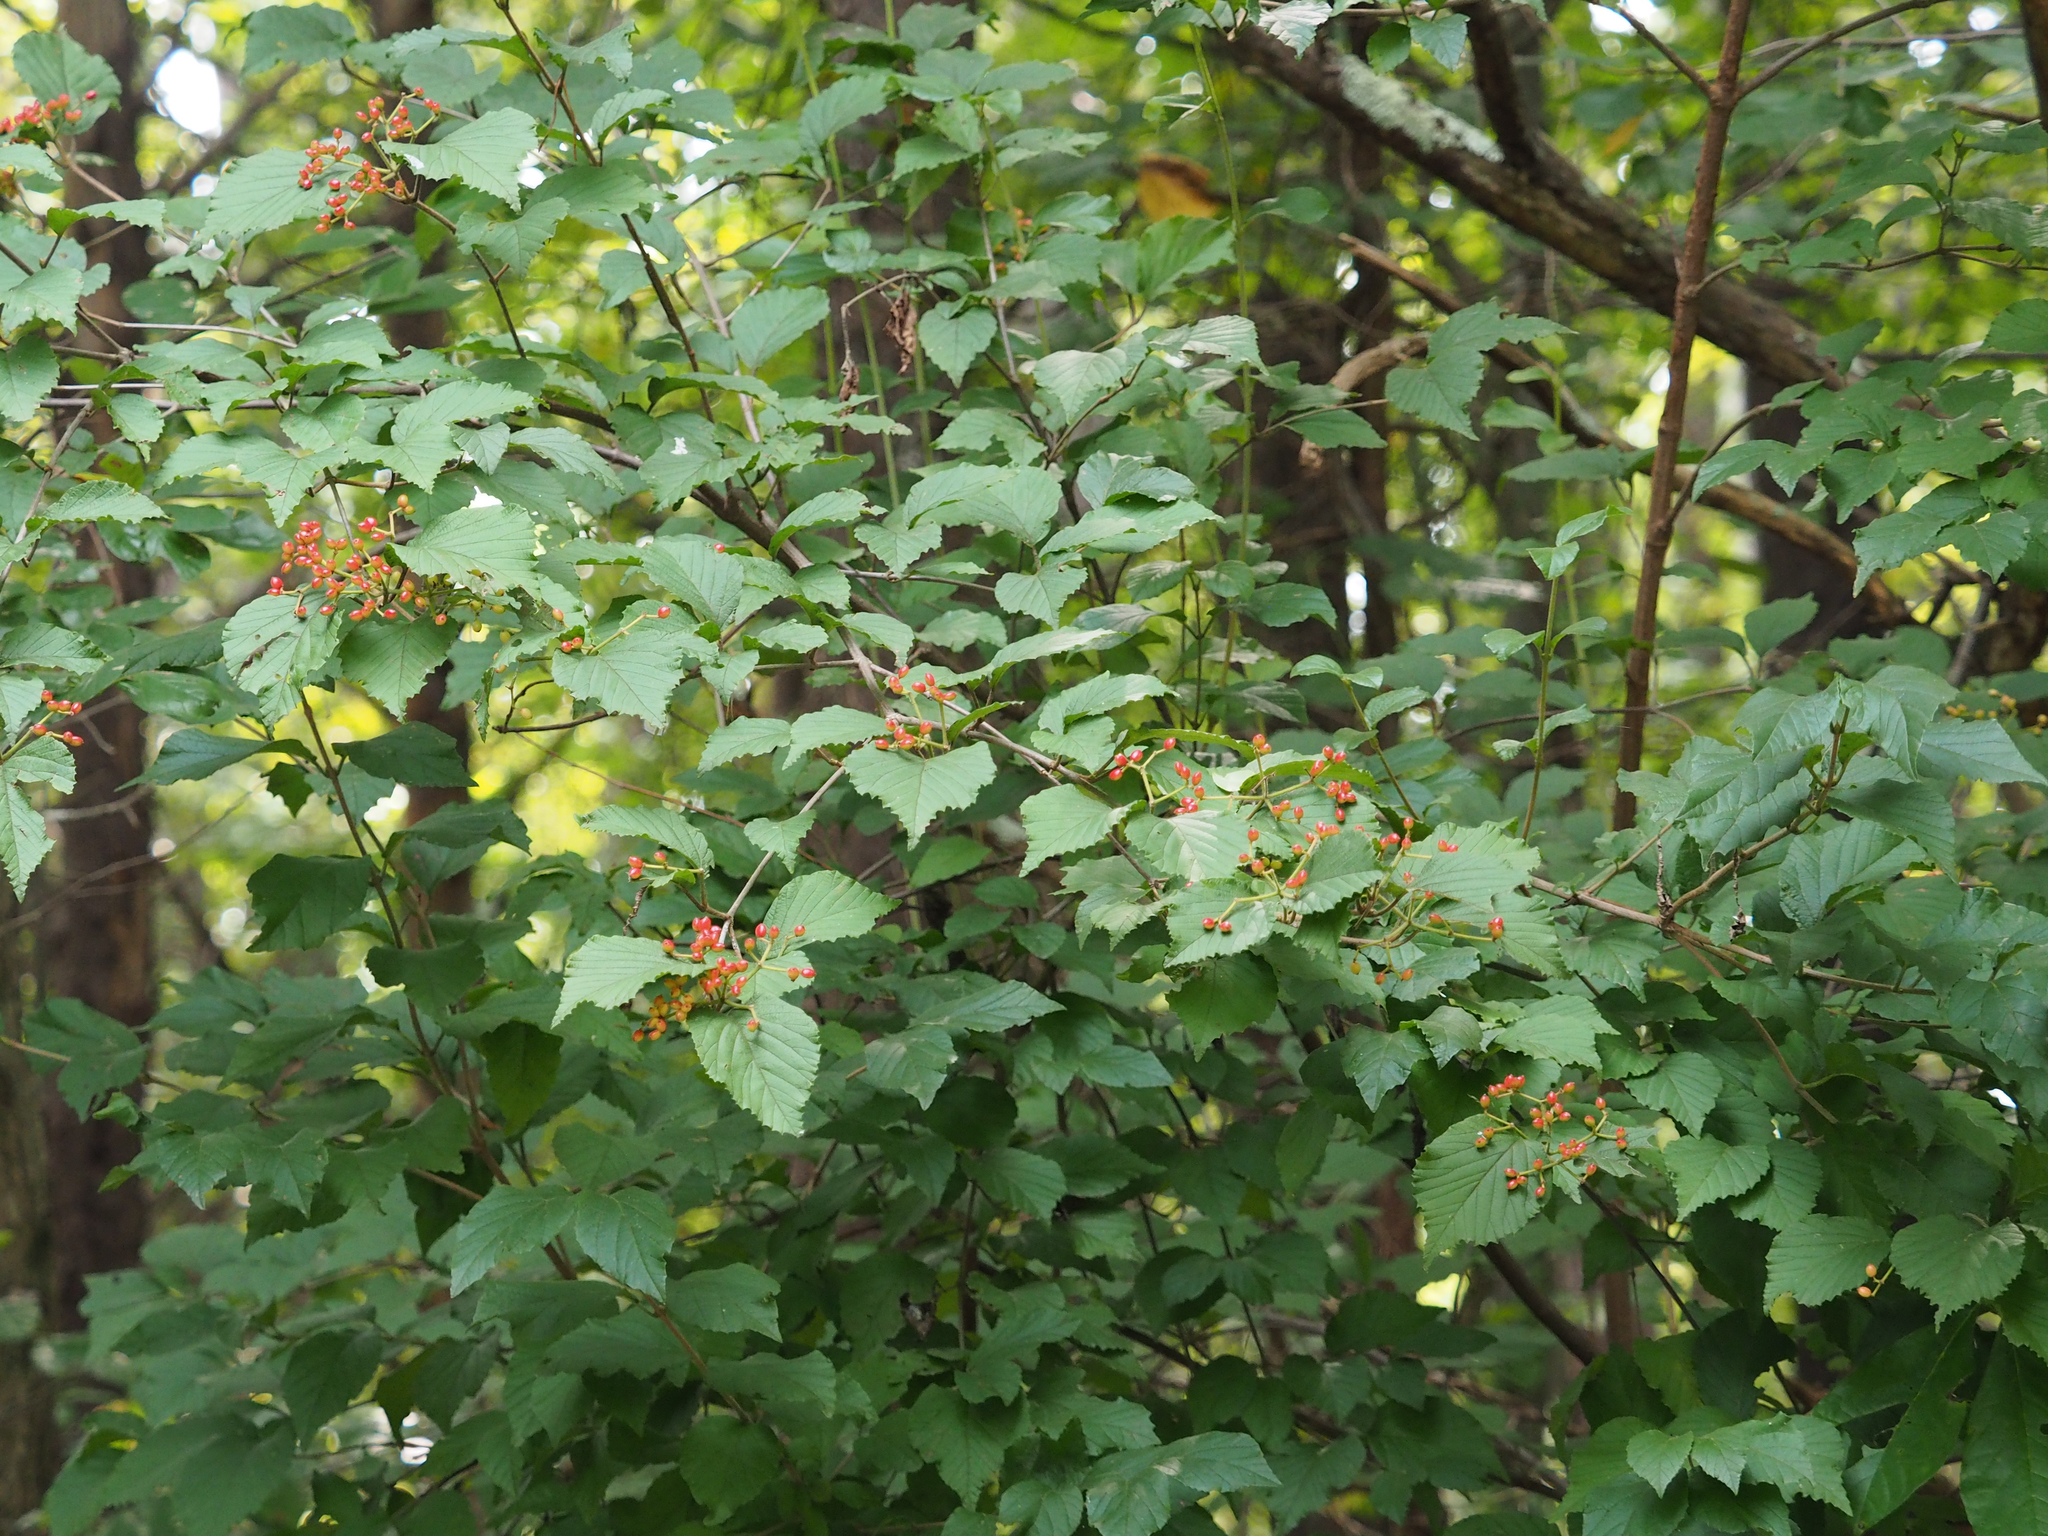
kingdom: Plantae
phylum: Tracheophyta
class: Magnoliopsida
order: Dipsacales
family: Viburnaceae
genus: Viburnum
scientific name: Viburnum dilatatum
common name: Linden arrowwood
